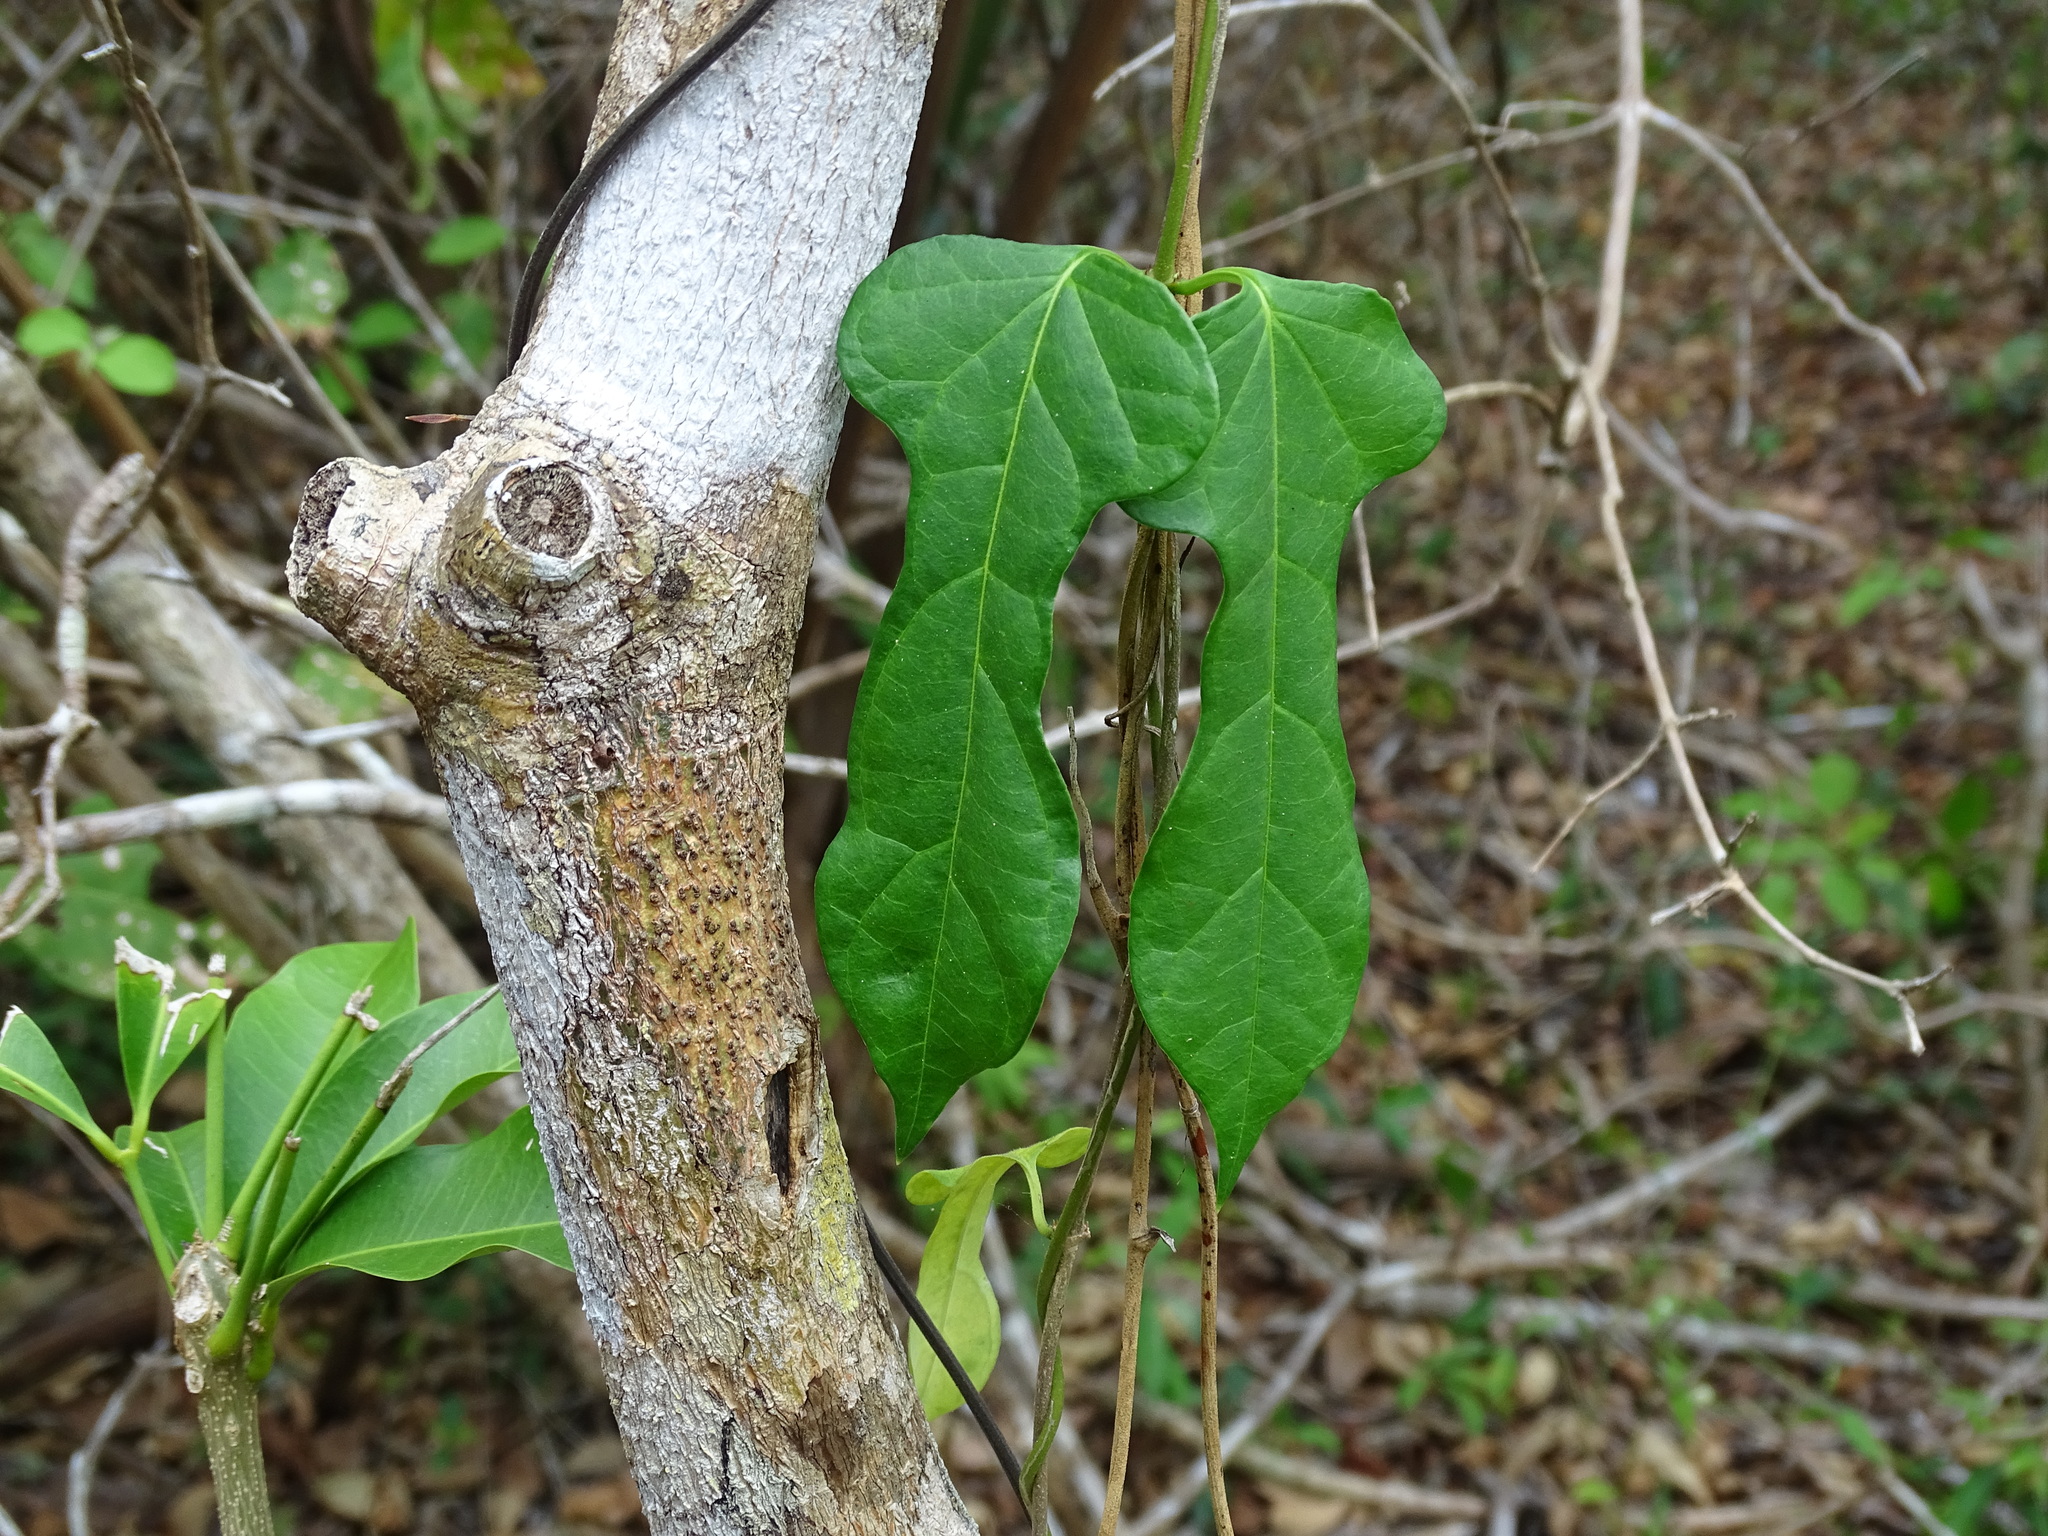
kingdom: Plantae
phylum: Tracheophyta
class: Magnoliopsida
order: Gentianales
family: Apocynaceae
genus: Echites
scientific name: Echites panduratus
